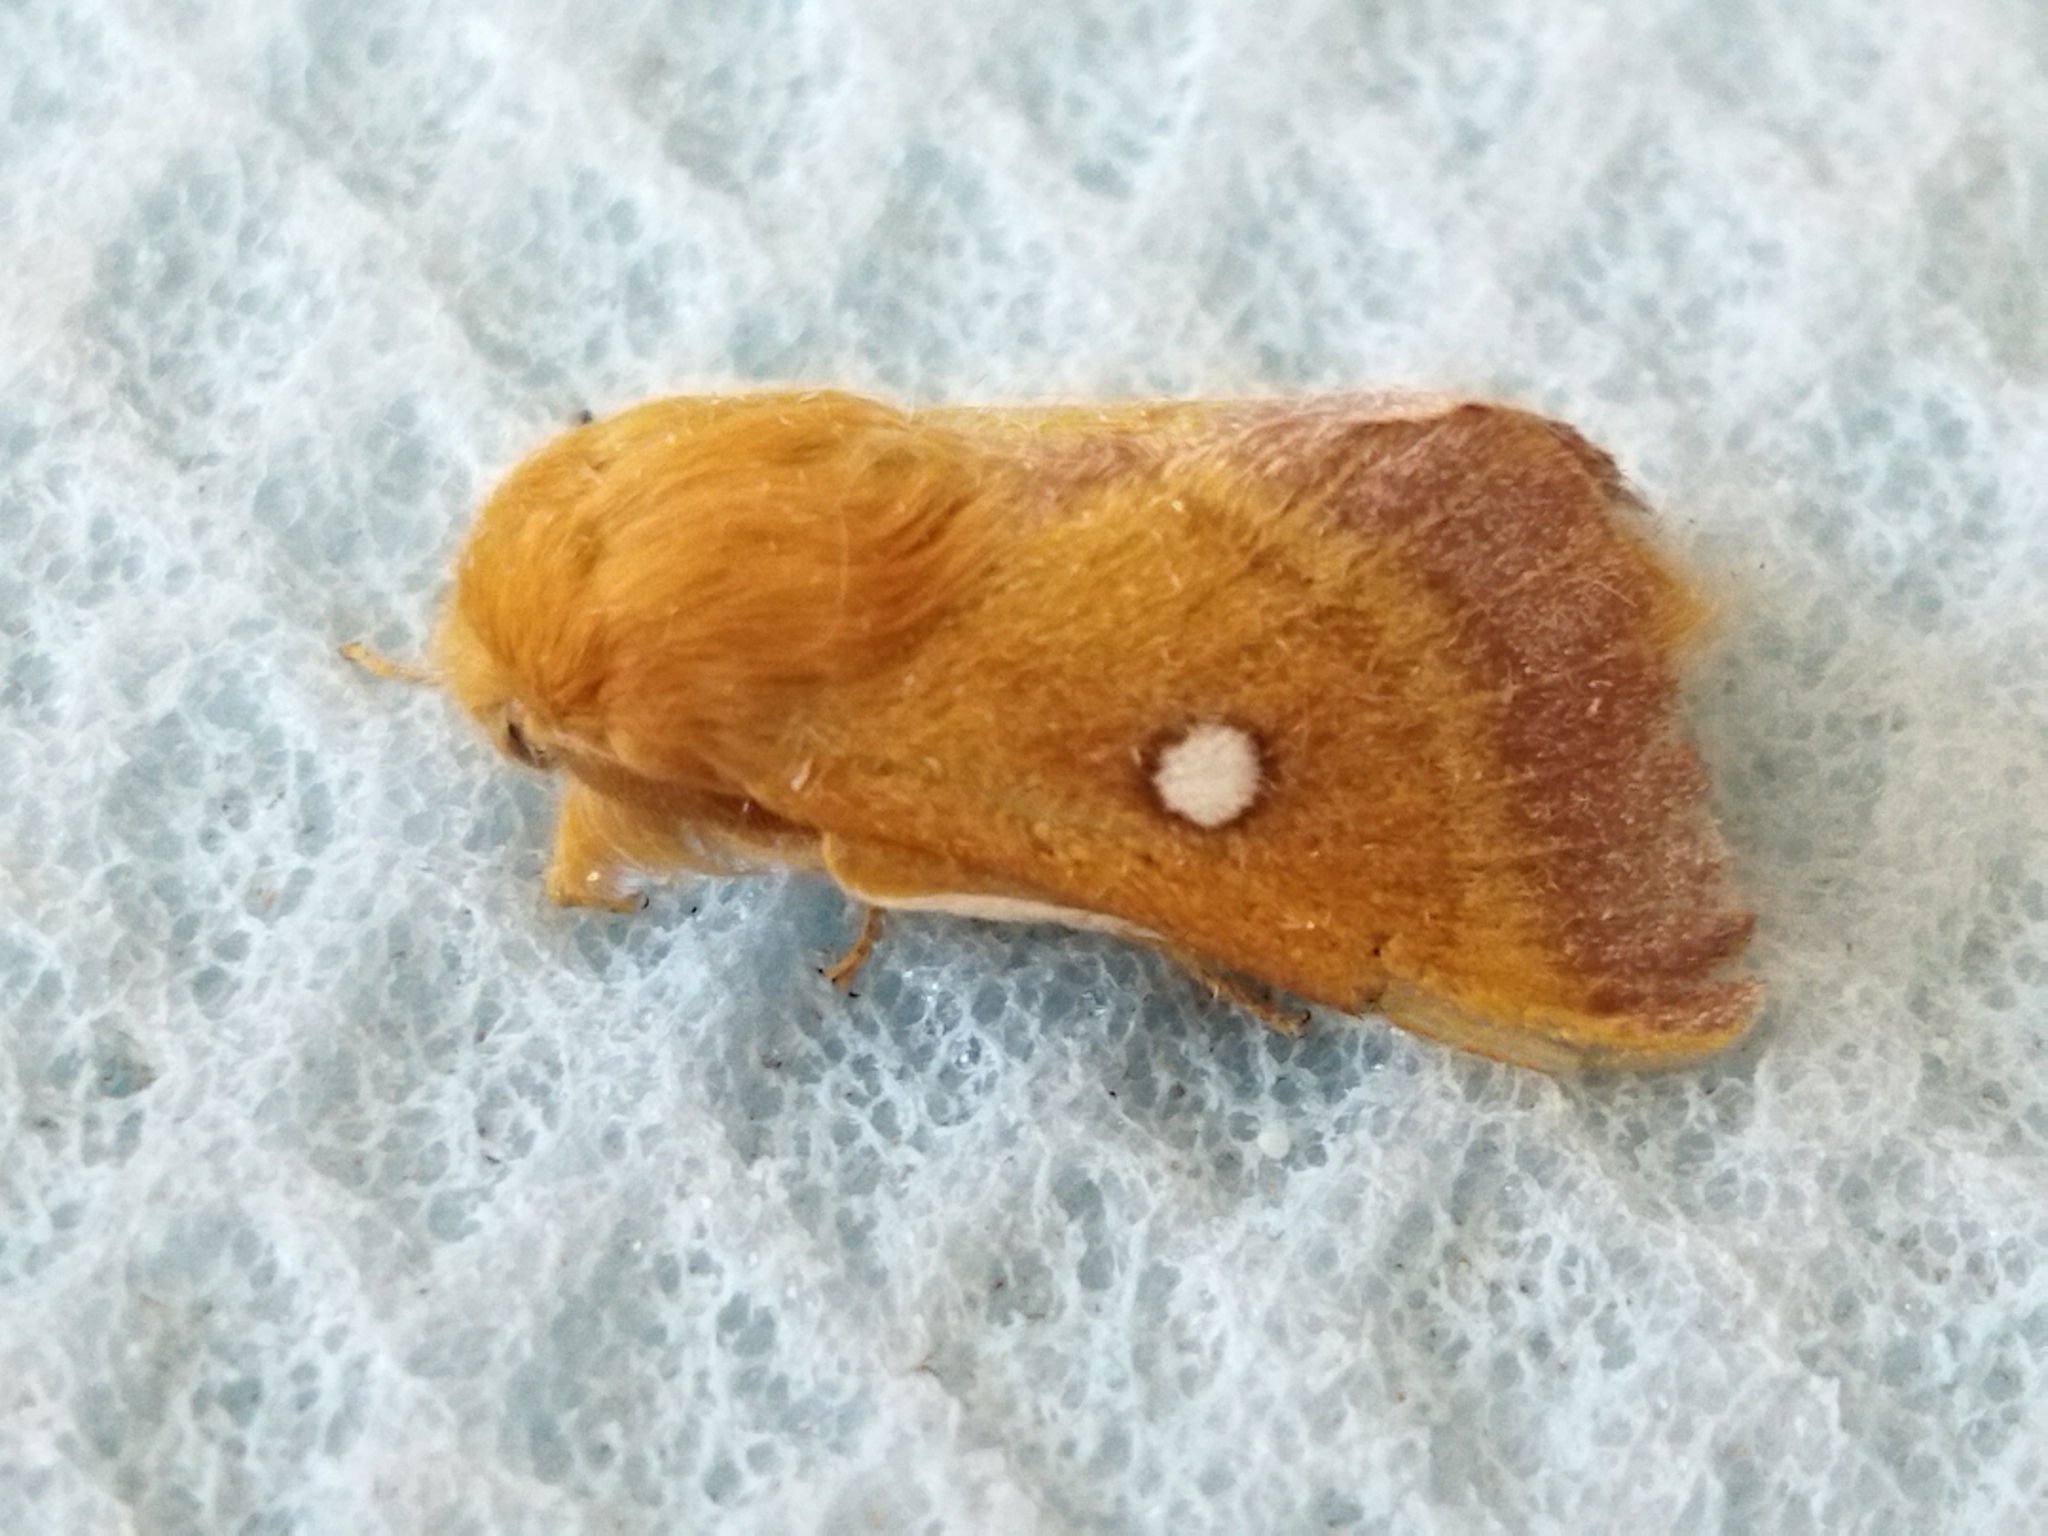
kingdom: Animalia
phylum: Arthropoda
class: Insecta
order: Lepidoptera
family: Lasiocampidae
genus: Eriogaster
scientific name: Eriogaster catax
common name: Eastern eggar
